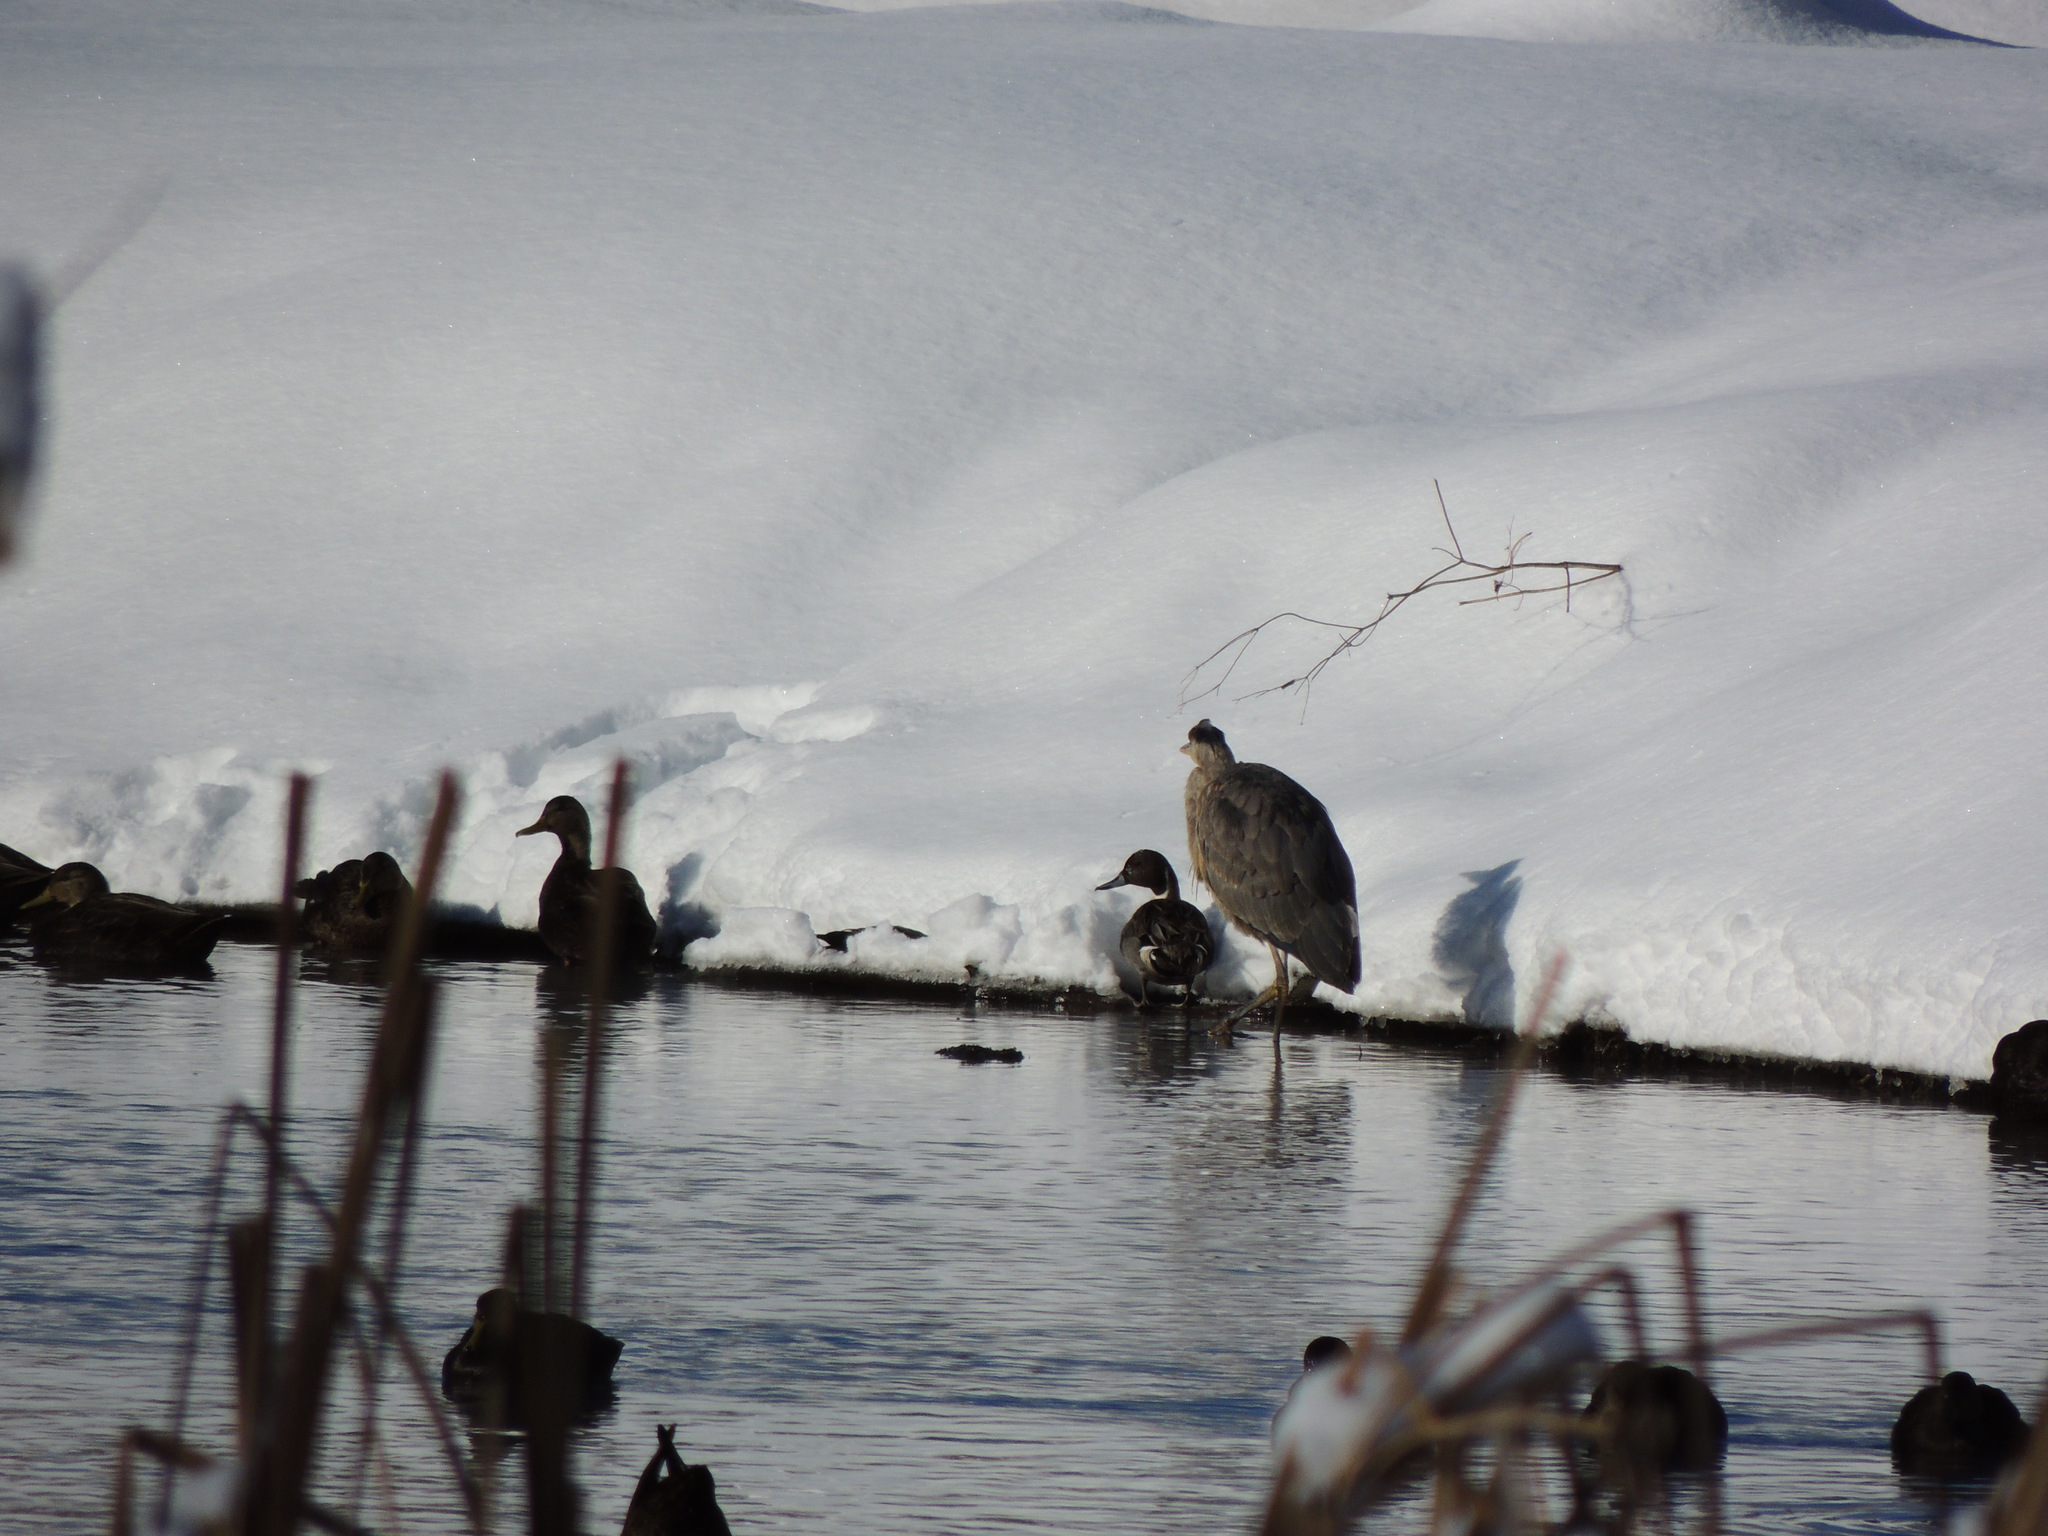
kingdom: Animalia
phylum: Chordata
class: Aves
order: Anseriformes
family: Anatidae
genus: Anas
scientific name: Anas acuta
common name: Northern pintail
